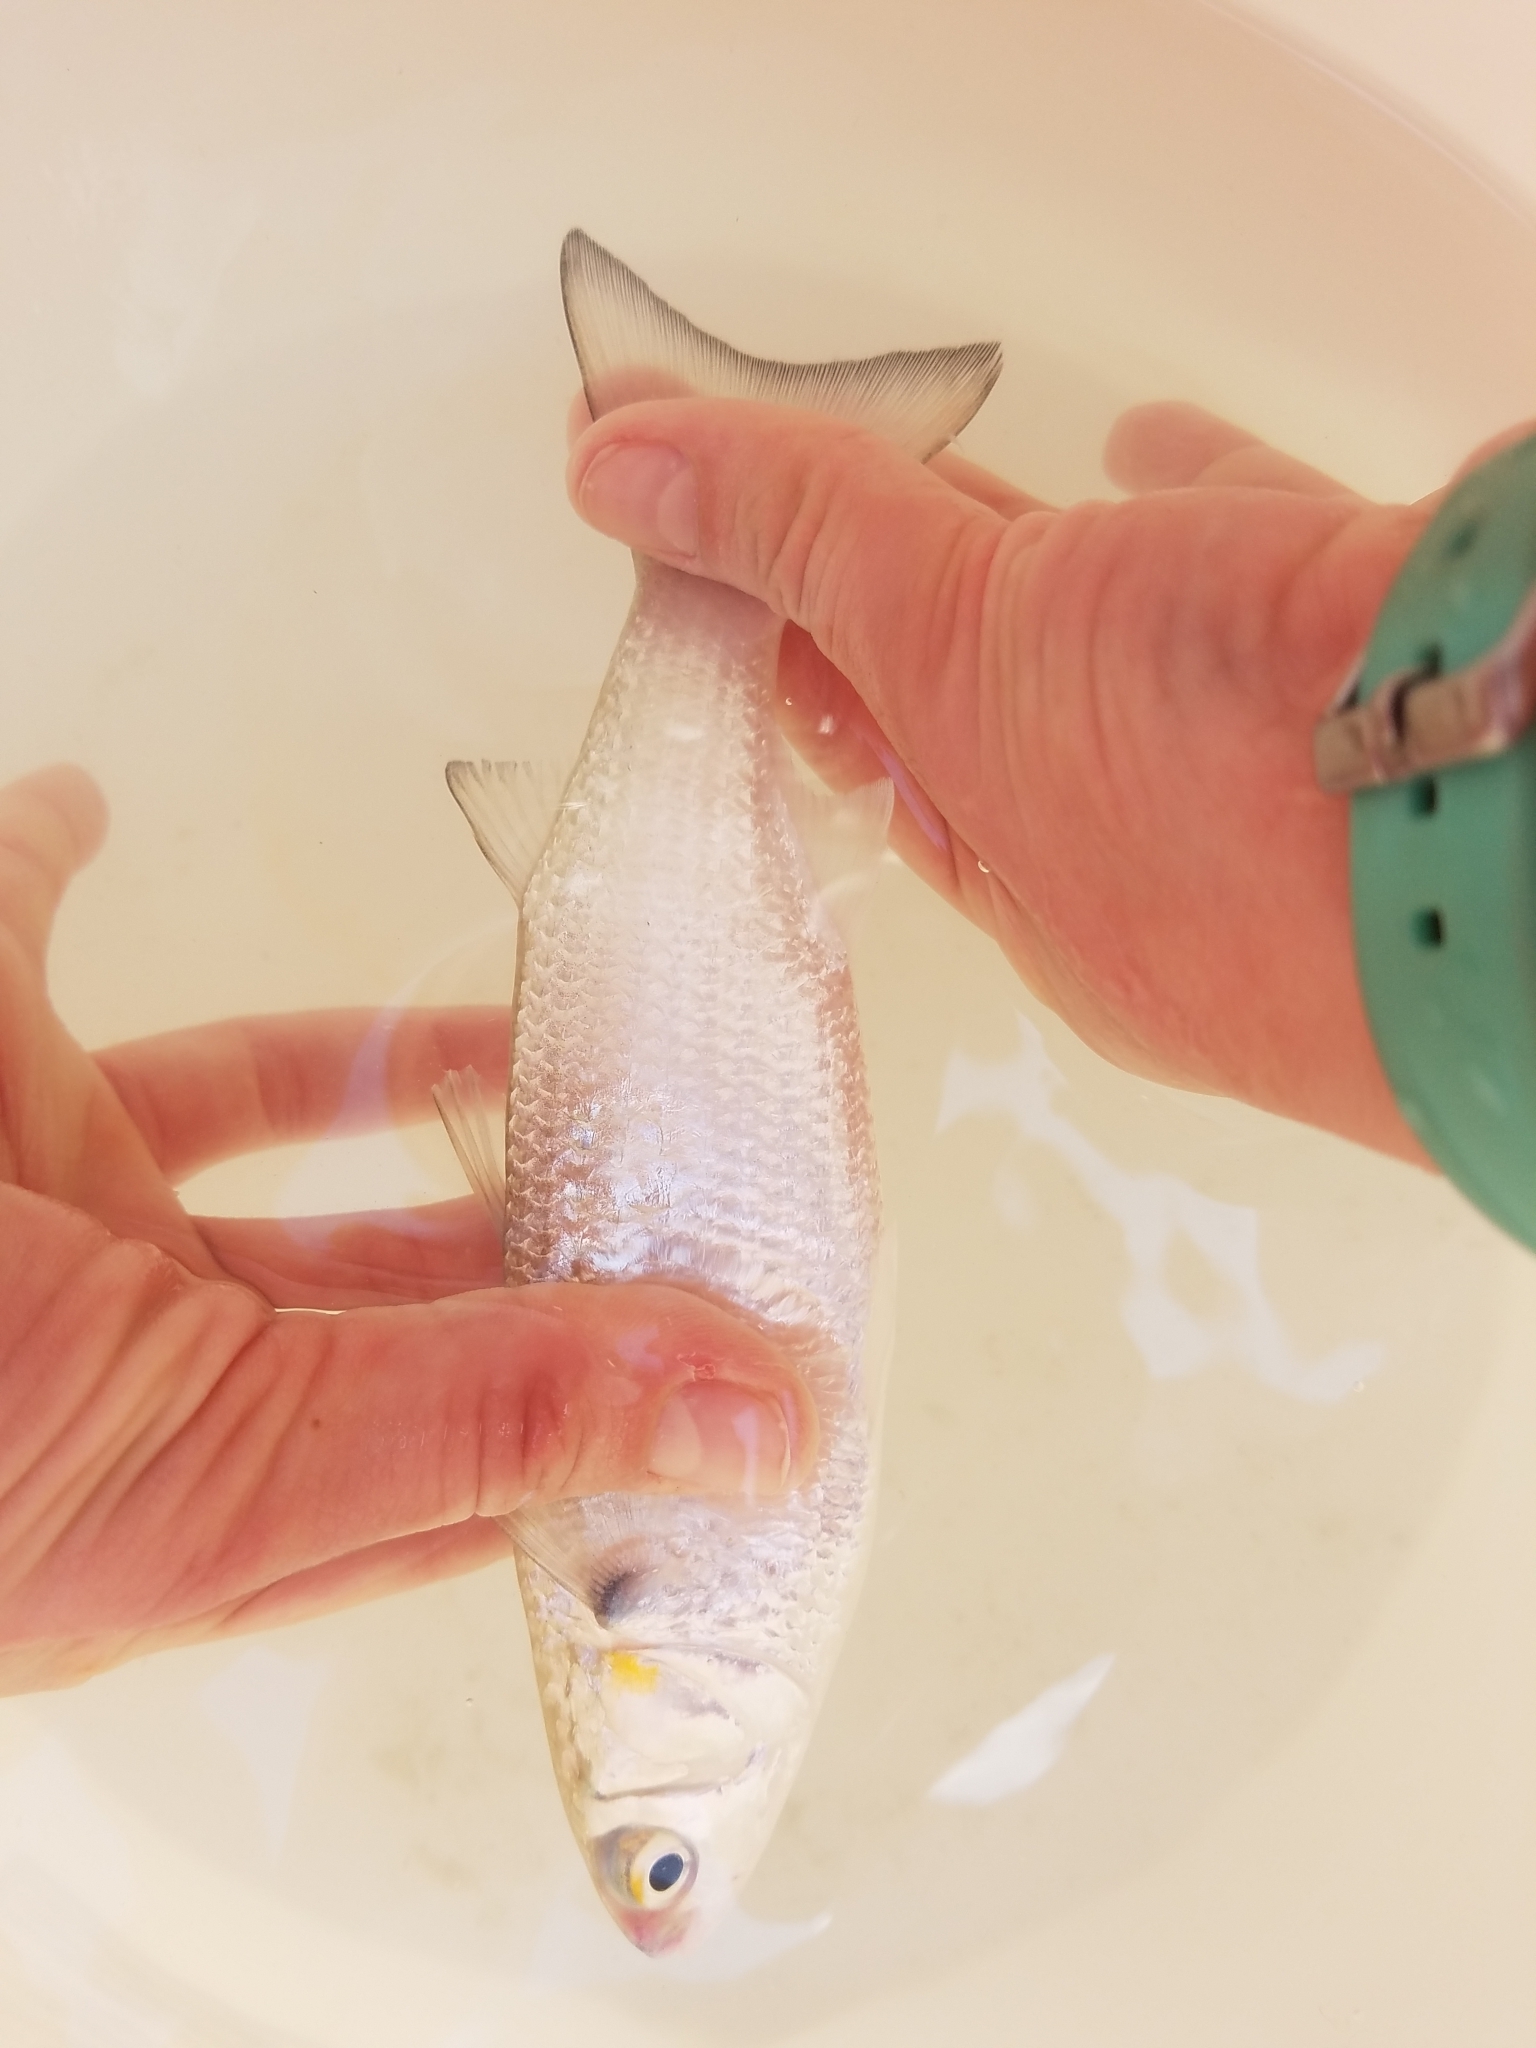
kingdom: Animalia
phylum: Chordata
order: Mugiliformes
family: Mugilidae
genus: Mugil
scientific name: Mugil curema
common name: White mullet
